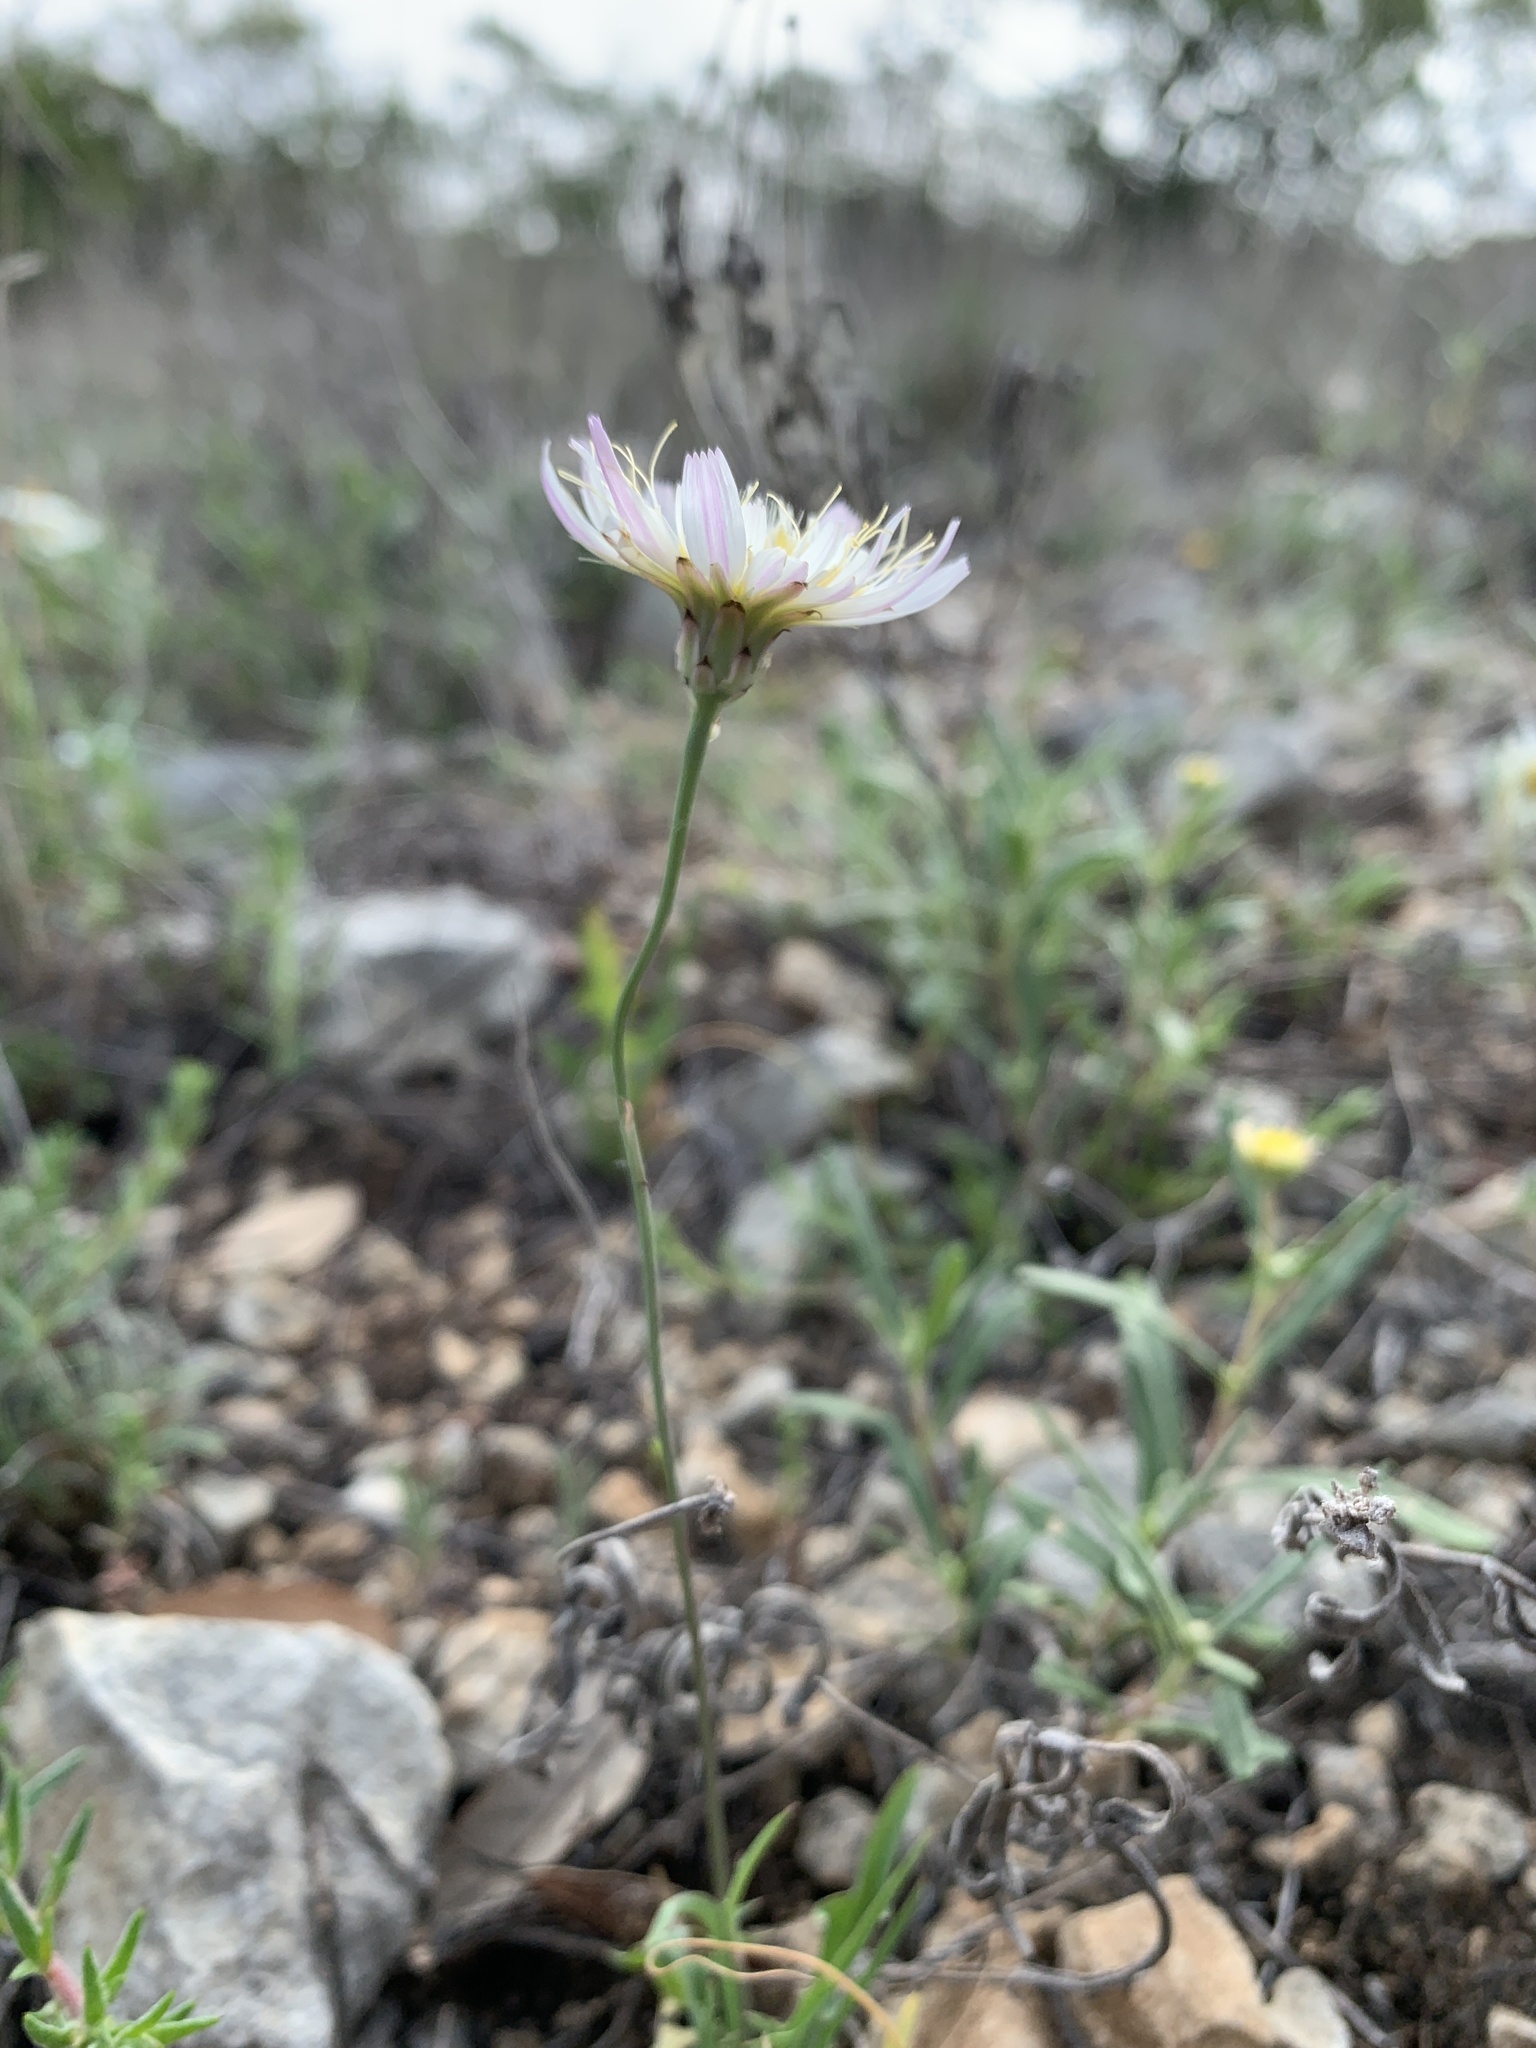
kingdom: Plantae
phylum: Tracheophyta
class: Magnoliopsida
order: Asterales
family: Asteraceae
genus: Pinaropappus
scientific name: Pinaropappus roseus
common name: Rock-lettuce
